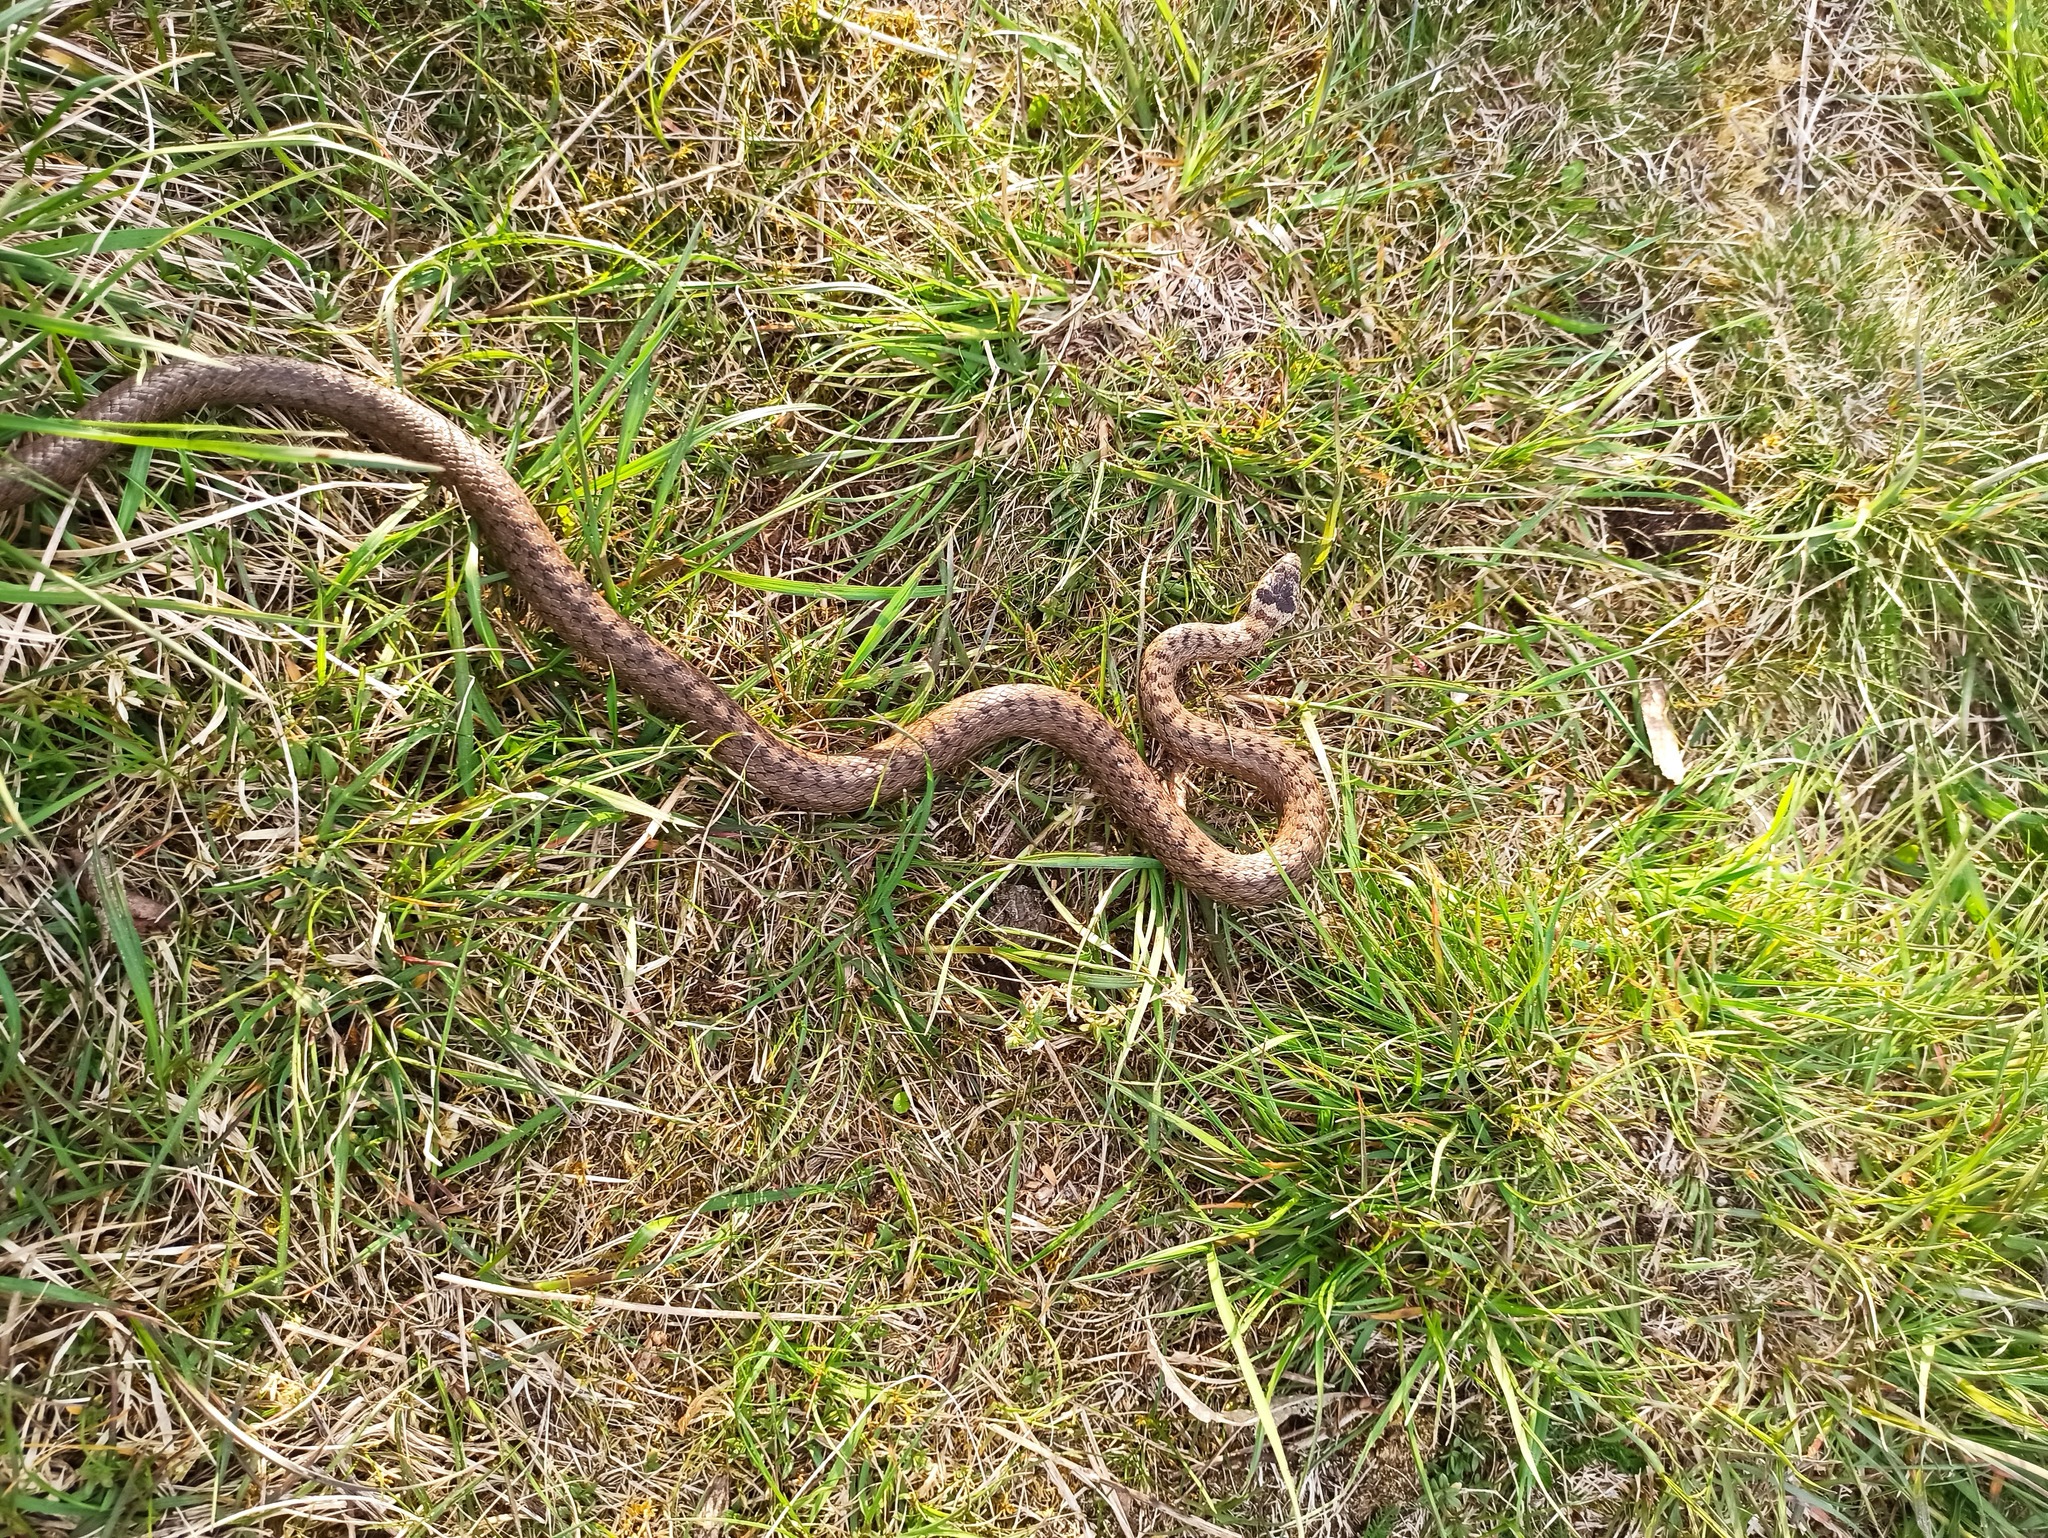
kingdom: Animalia
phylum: Chordata
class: Squamata
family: Colubridae
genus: Coronella
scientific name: Coronella austriaca
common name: Smooth snake
